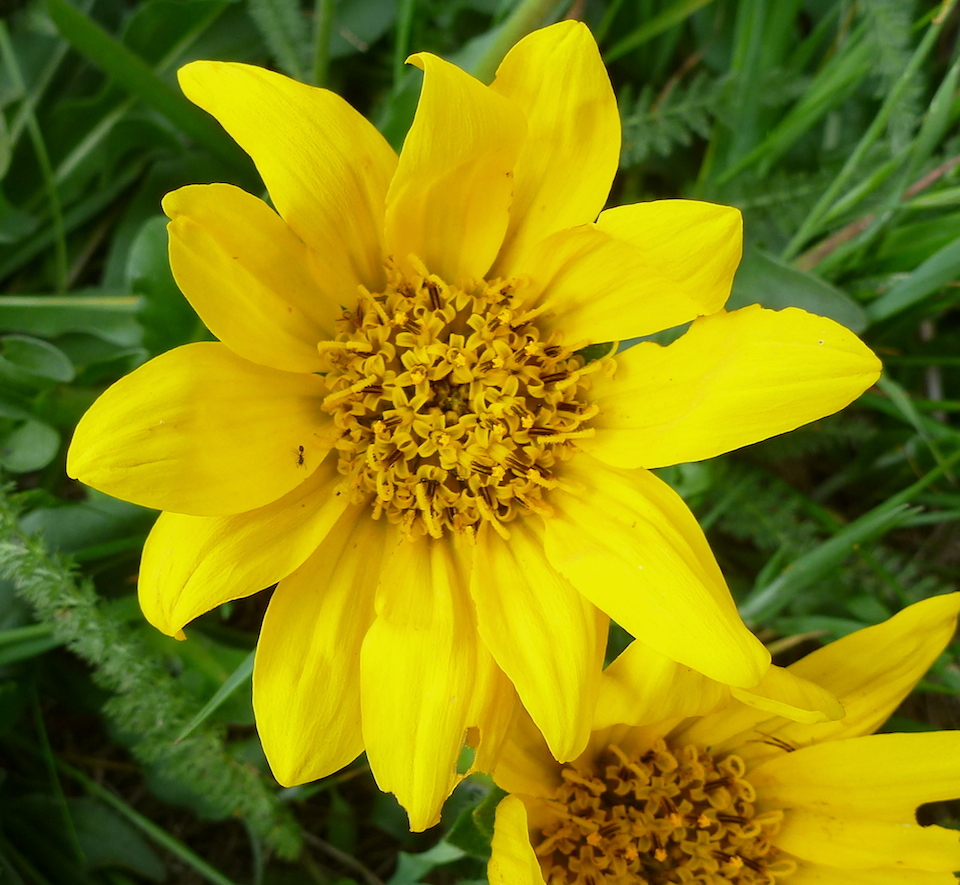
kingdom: Plantae
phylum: Tracheophyta
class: Magnoliopsida
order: Asterales
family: Asteraceae
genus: Wyethia
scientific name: Wyethia angustifolia
